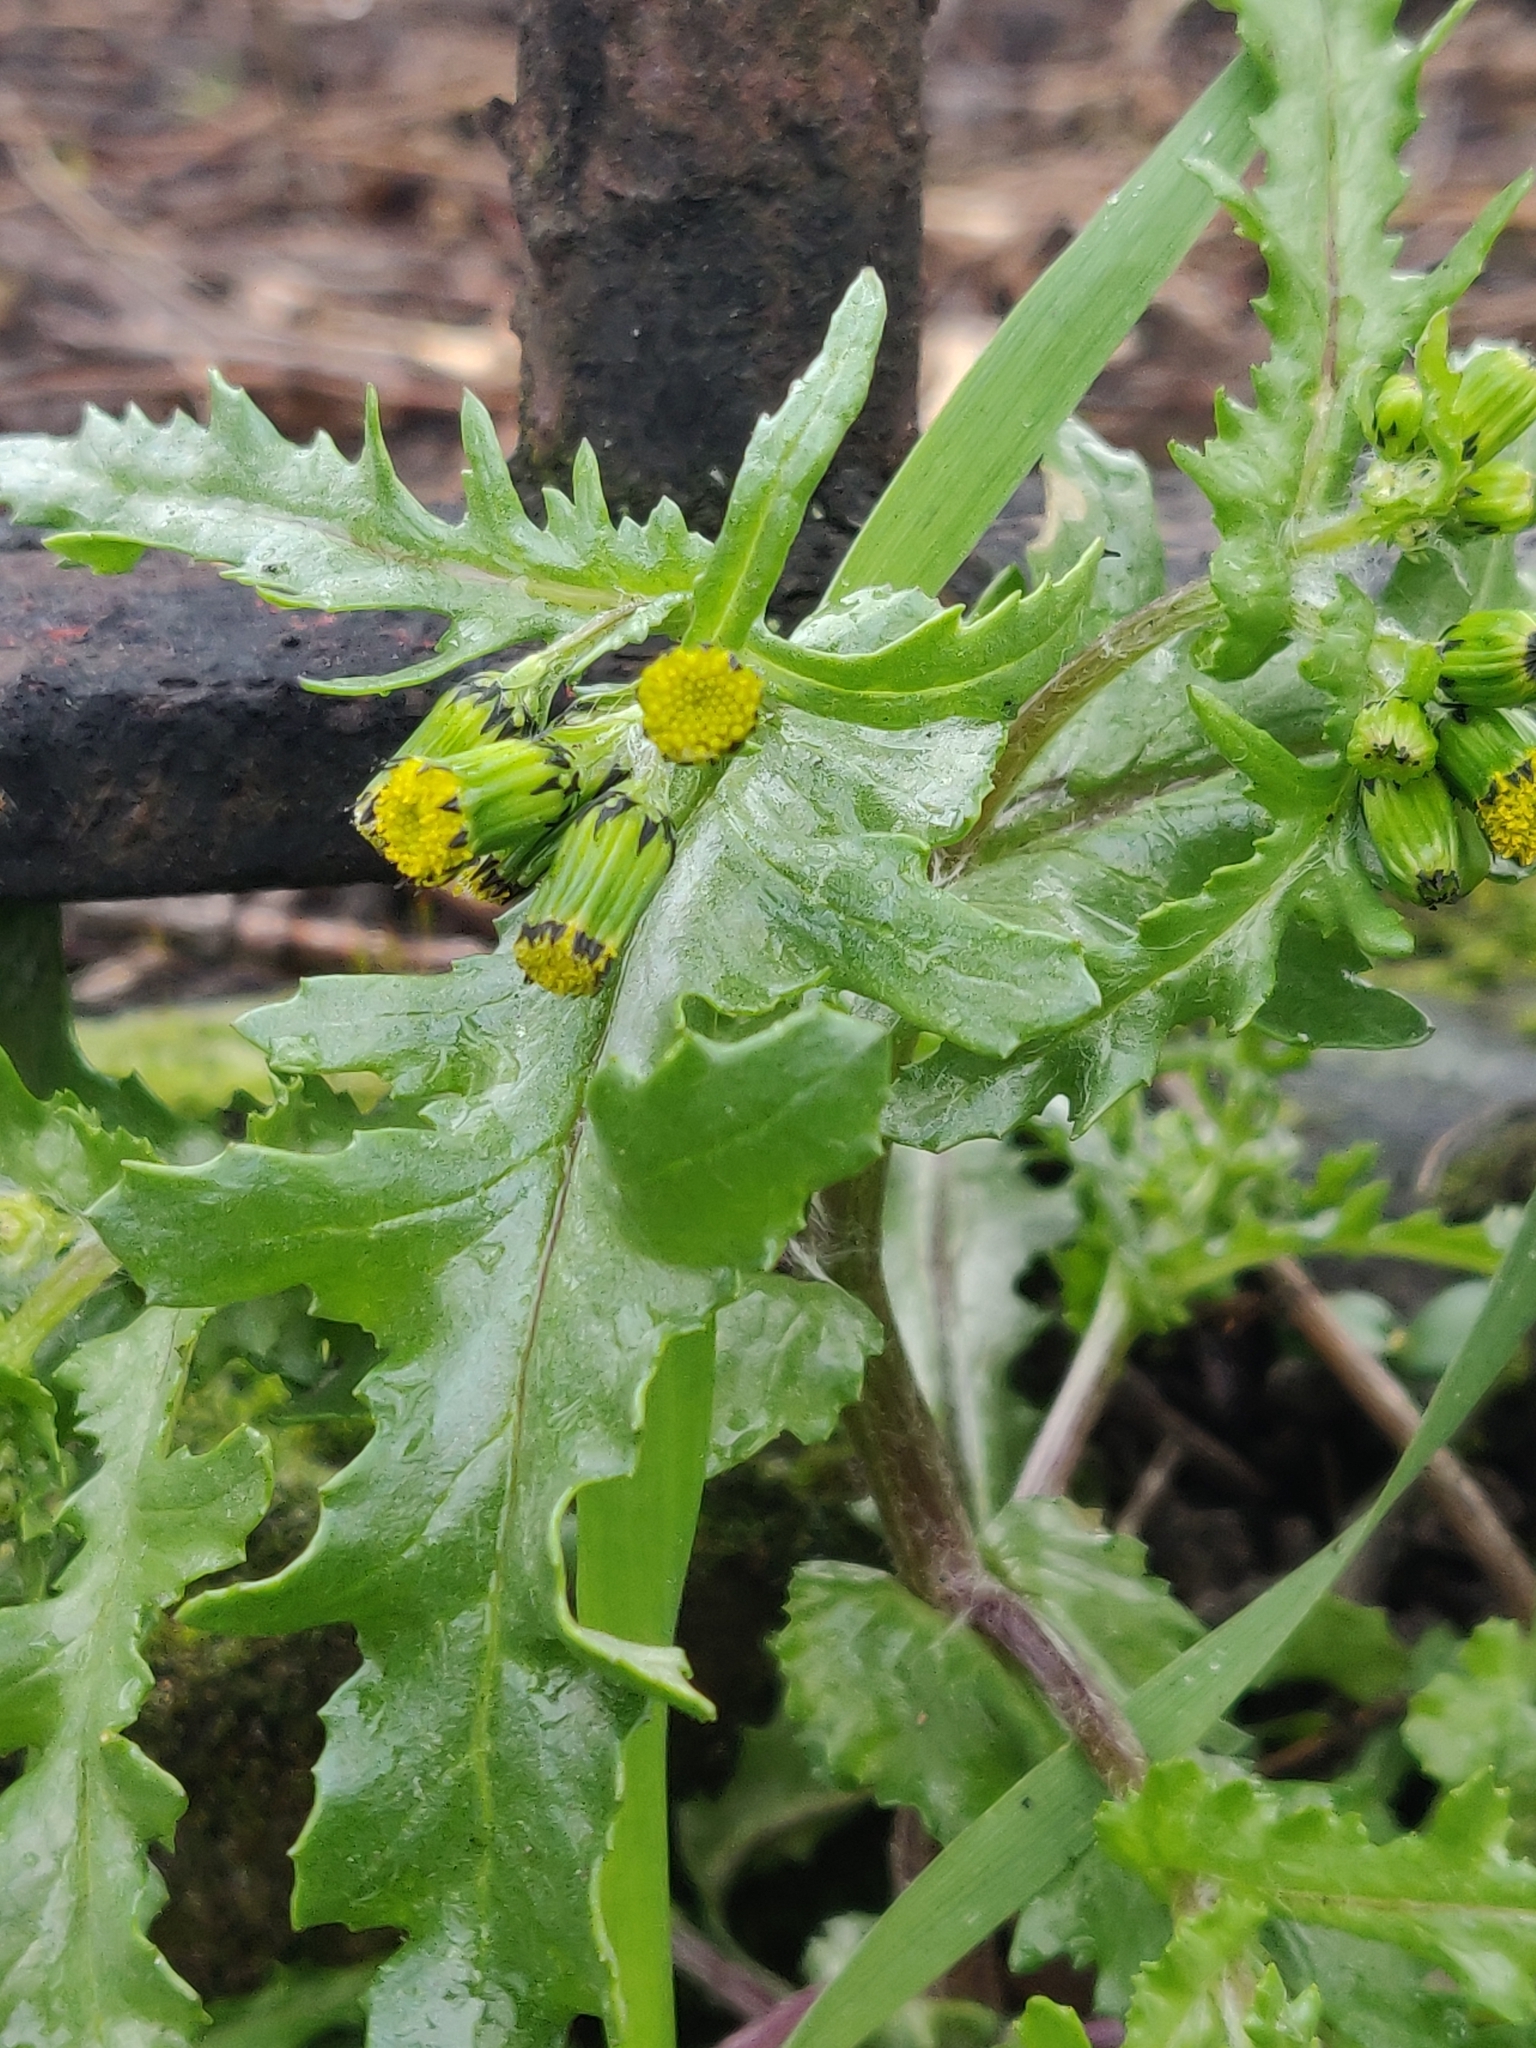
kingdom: Plantae
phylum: Tracheophyta
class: Magnoliopsida
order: Asterales
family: Asteraceae
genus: Senecio
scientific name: Senecio vulgaris
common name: Old-man-in-the-spring
